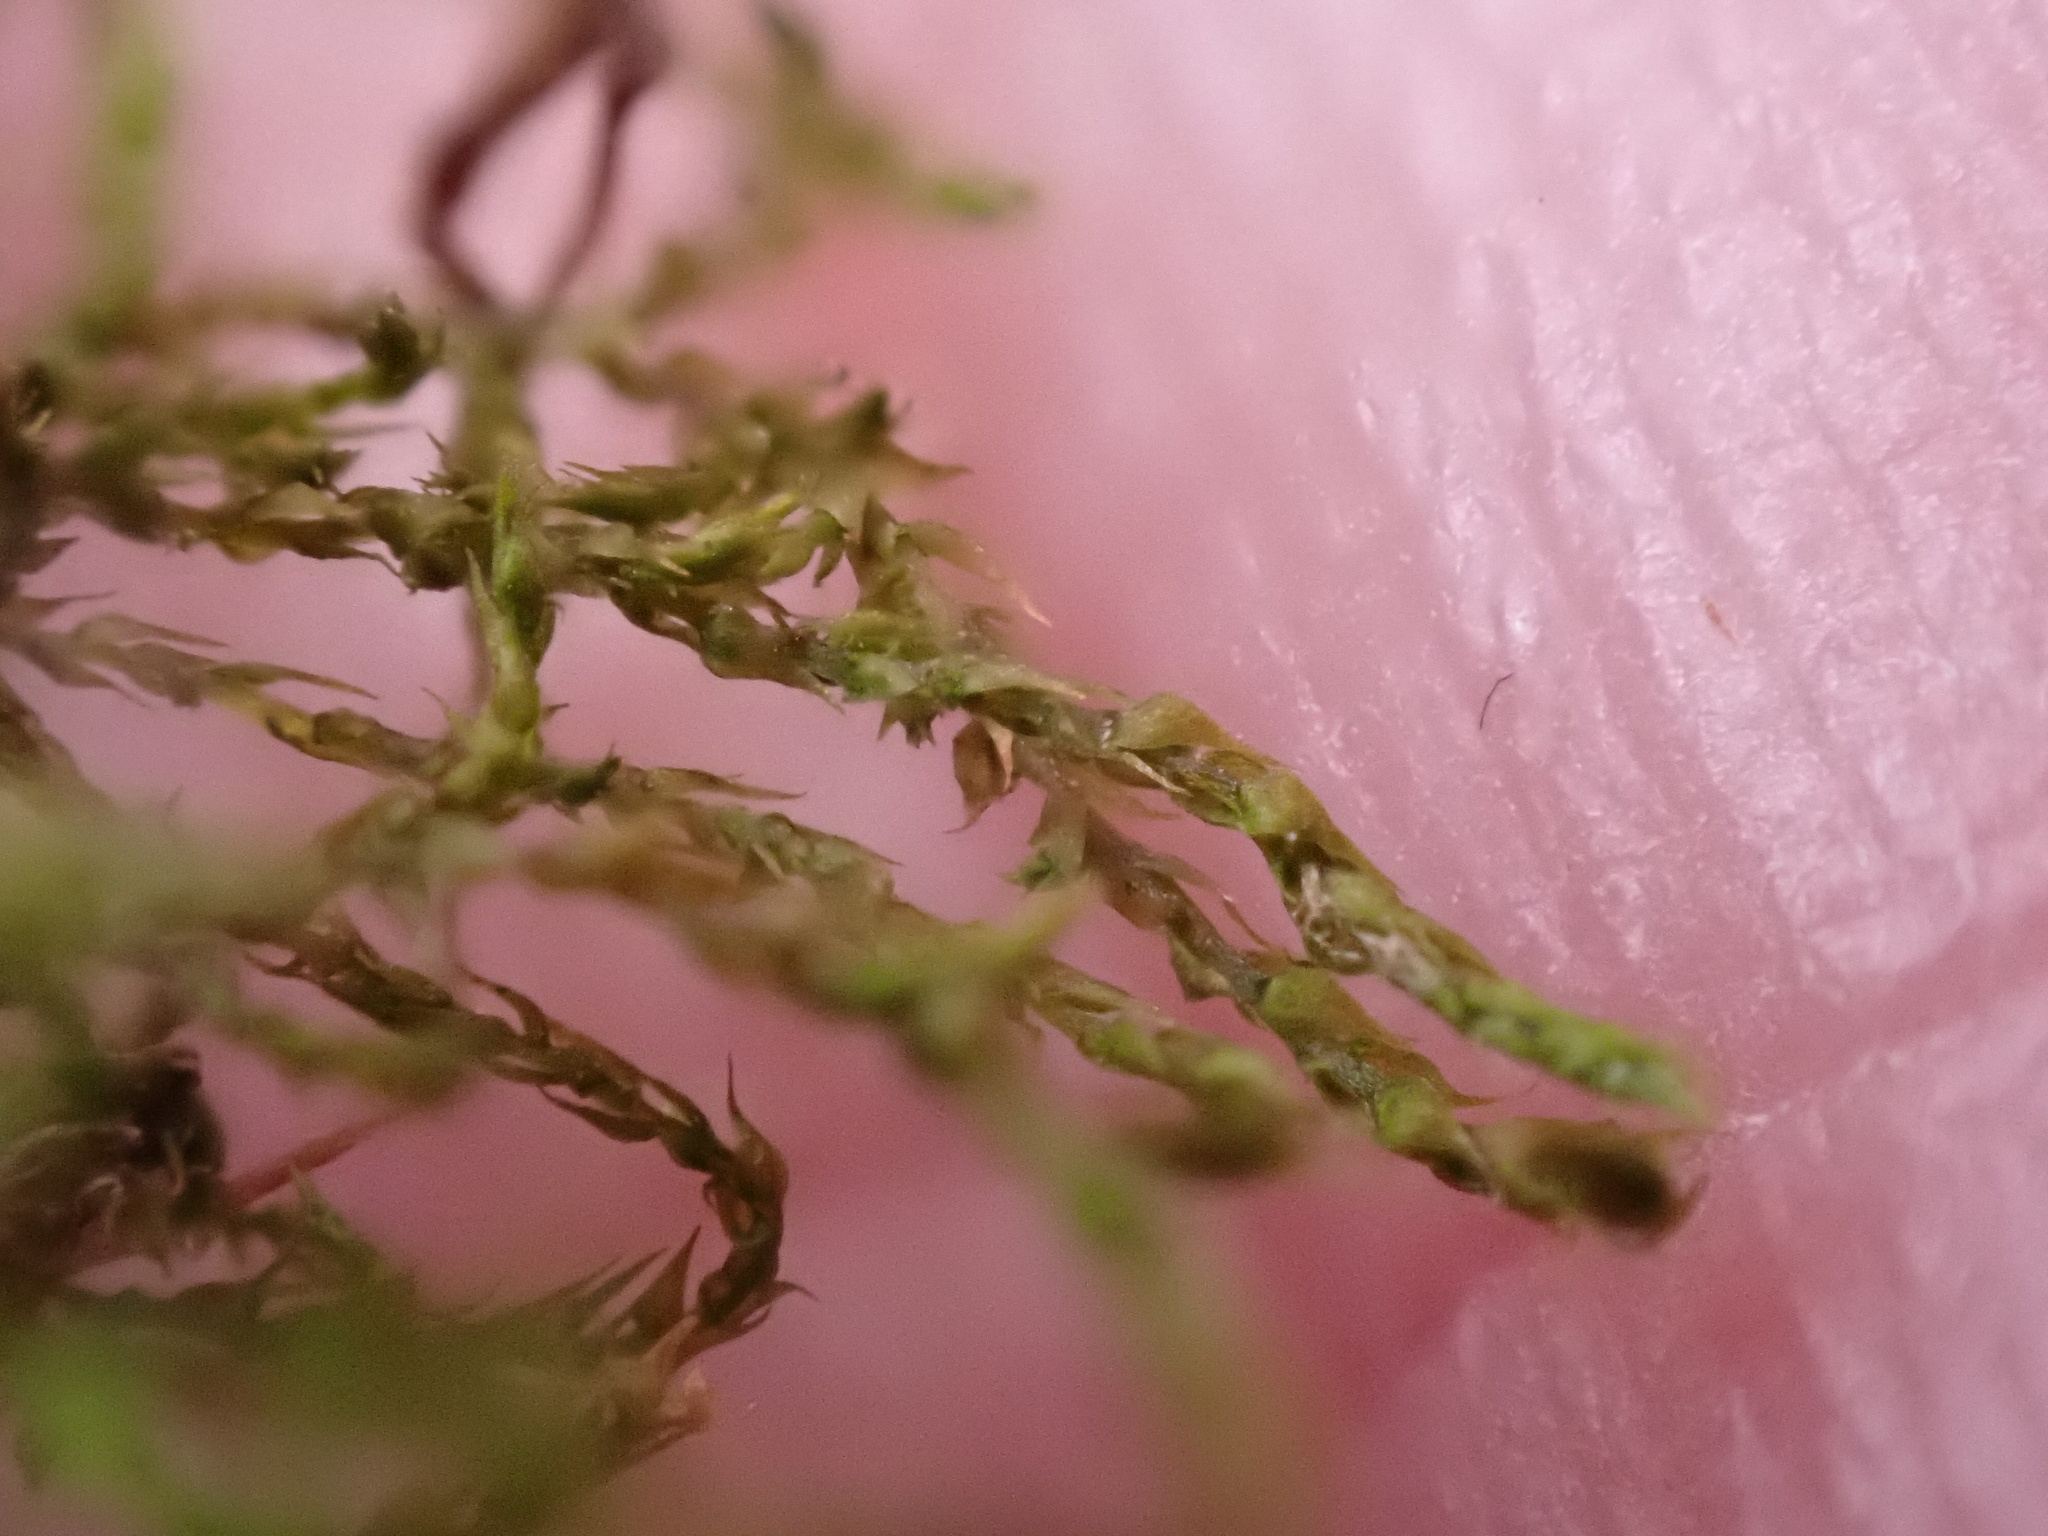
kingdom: Plantae
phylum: Bryophyta
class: Bryopsida
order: Hypnales
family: Amblystegiaceae
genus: Amblystegium
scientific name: Amblystegium serpens
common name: Jurkatzka's feather moss
